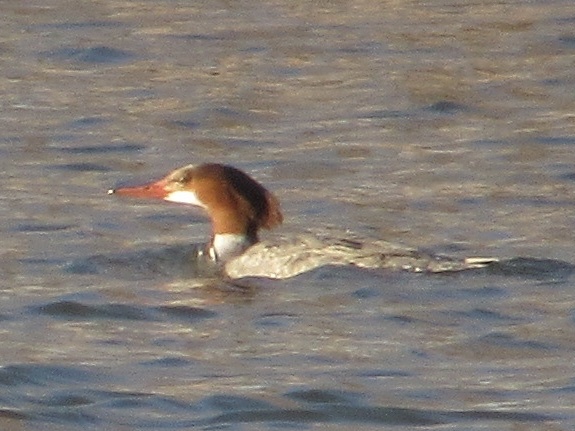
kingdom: Animalia
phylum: Chordata
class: Aves
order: Anseriformes
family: Anatidae
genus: Mergus
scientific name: Mergus merganser
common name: Common merganser
